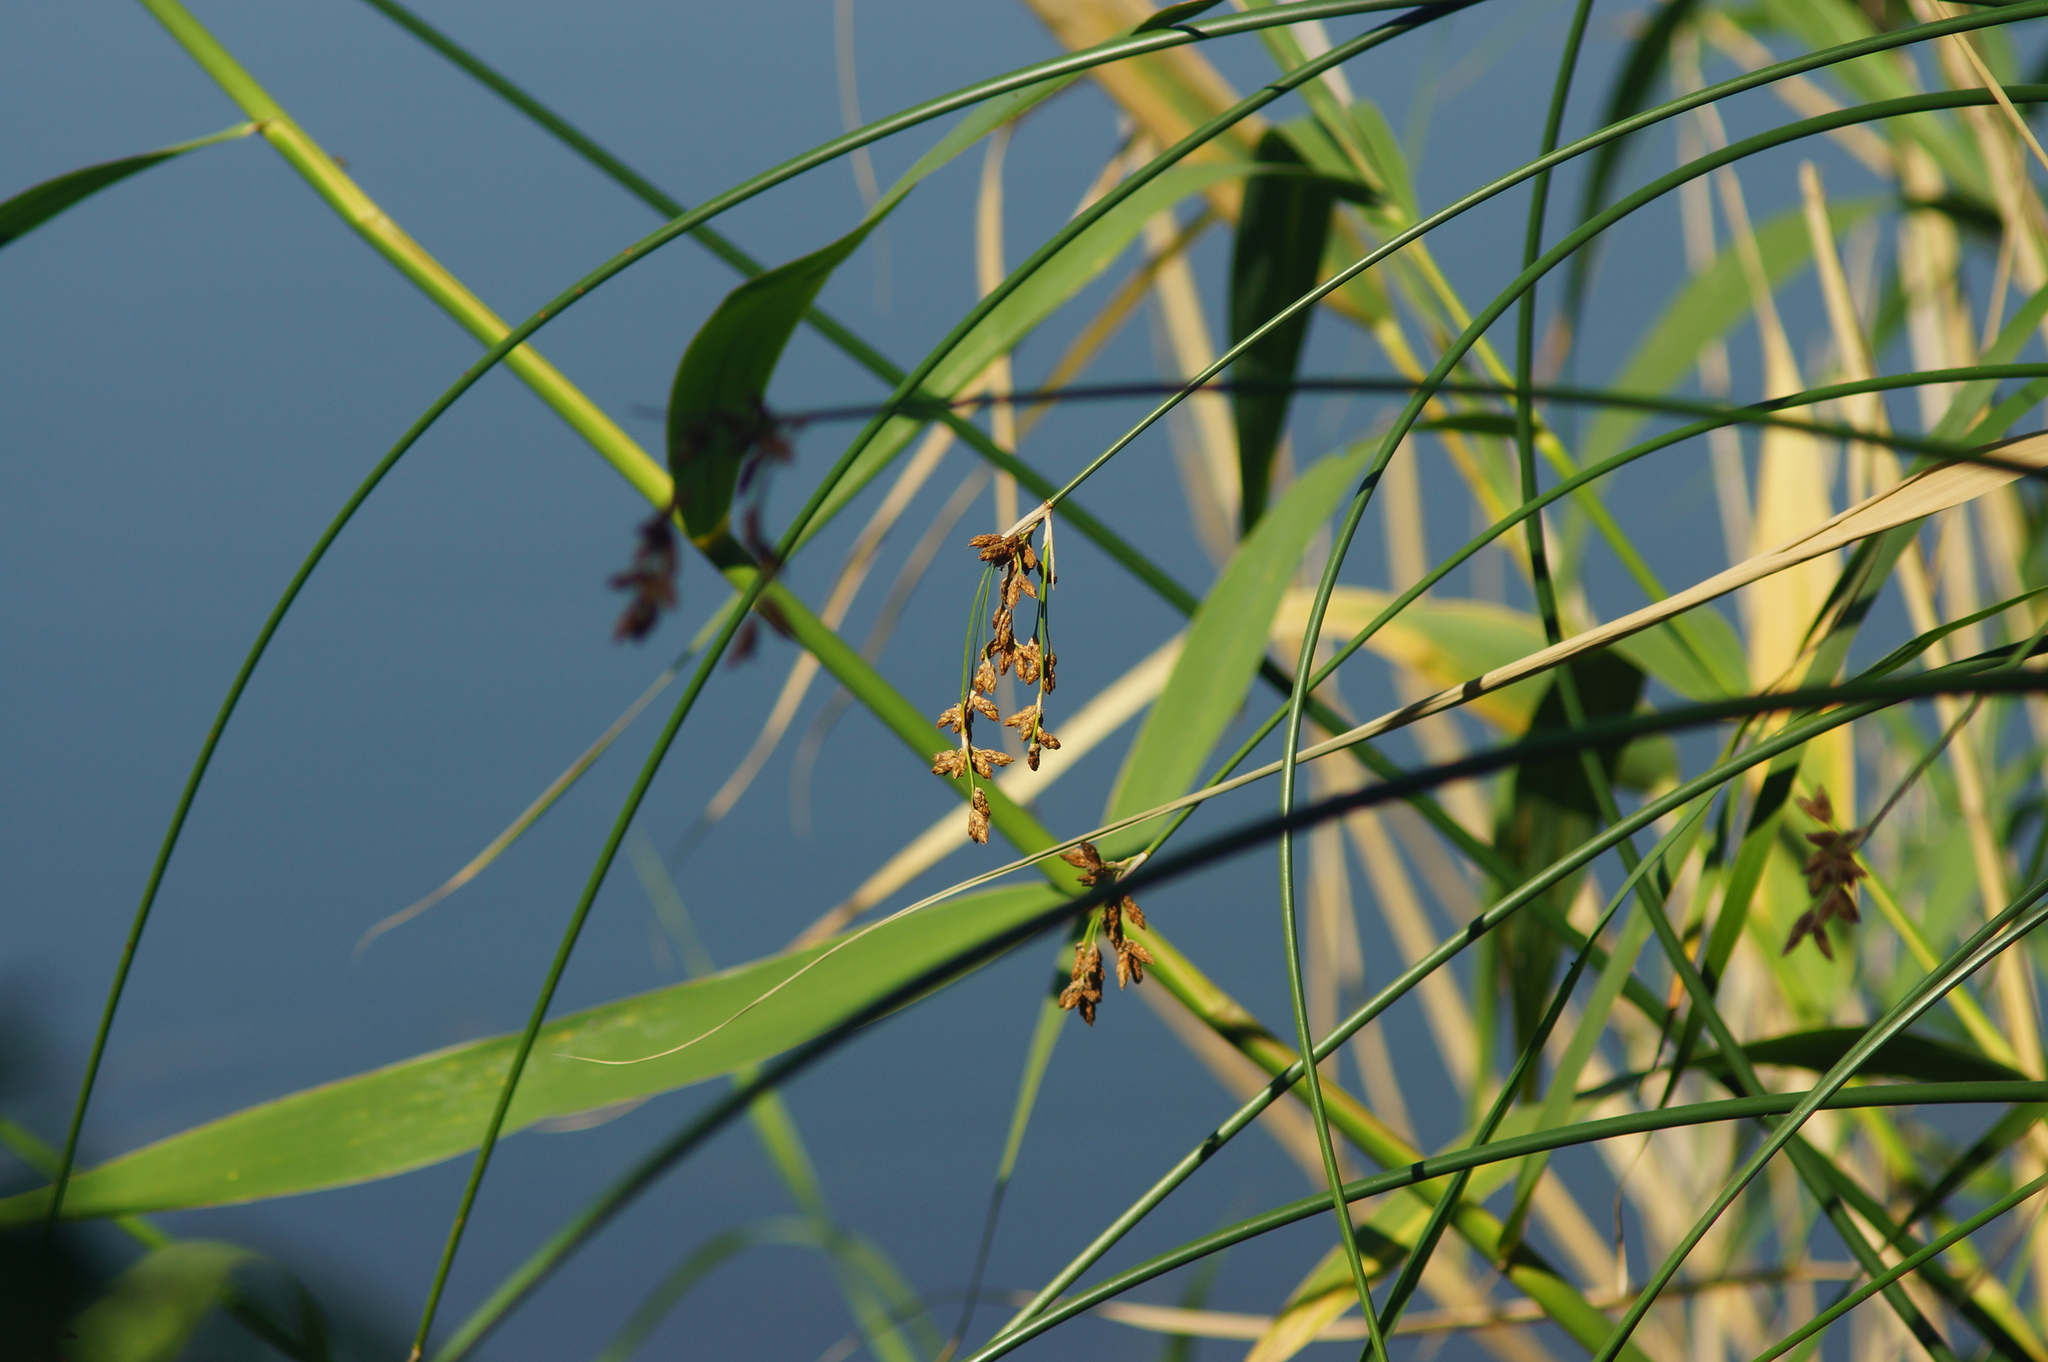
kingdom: Plantae
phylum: Tracheophyta
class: Liliopsida
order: Poales
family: Cyperaceae
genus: Schoenoplectus
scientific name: Schoenoplectus lacustris
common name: Common club-rush
